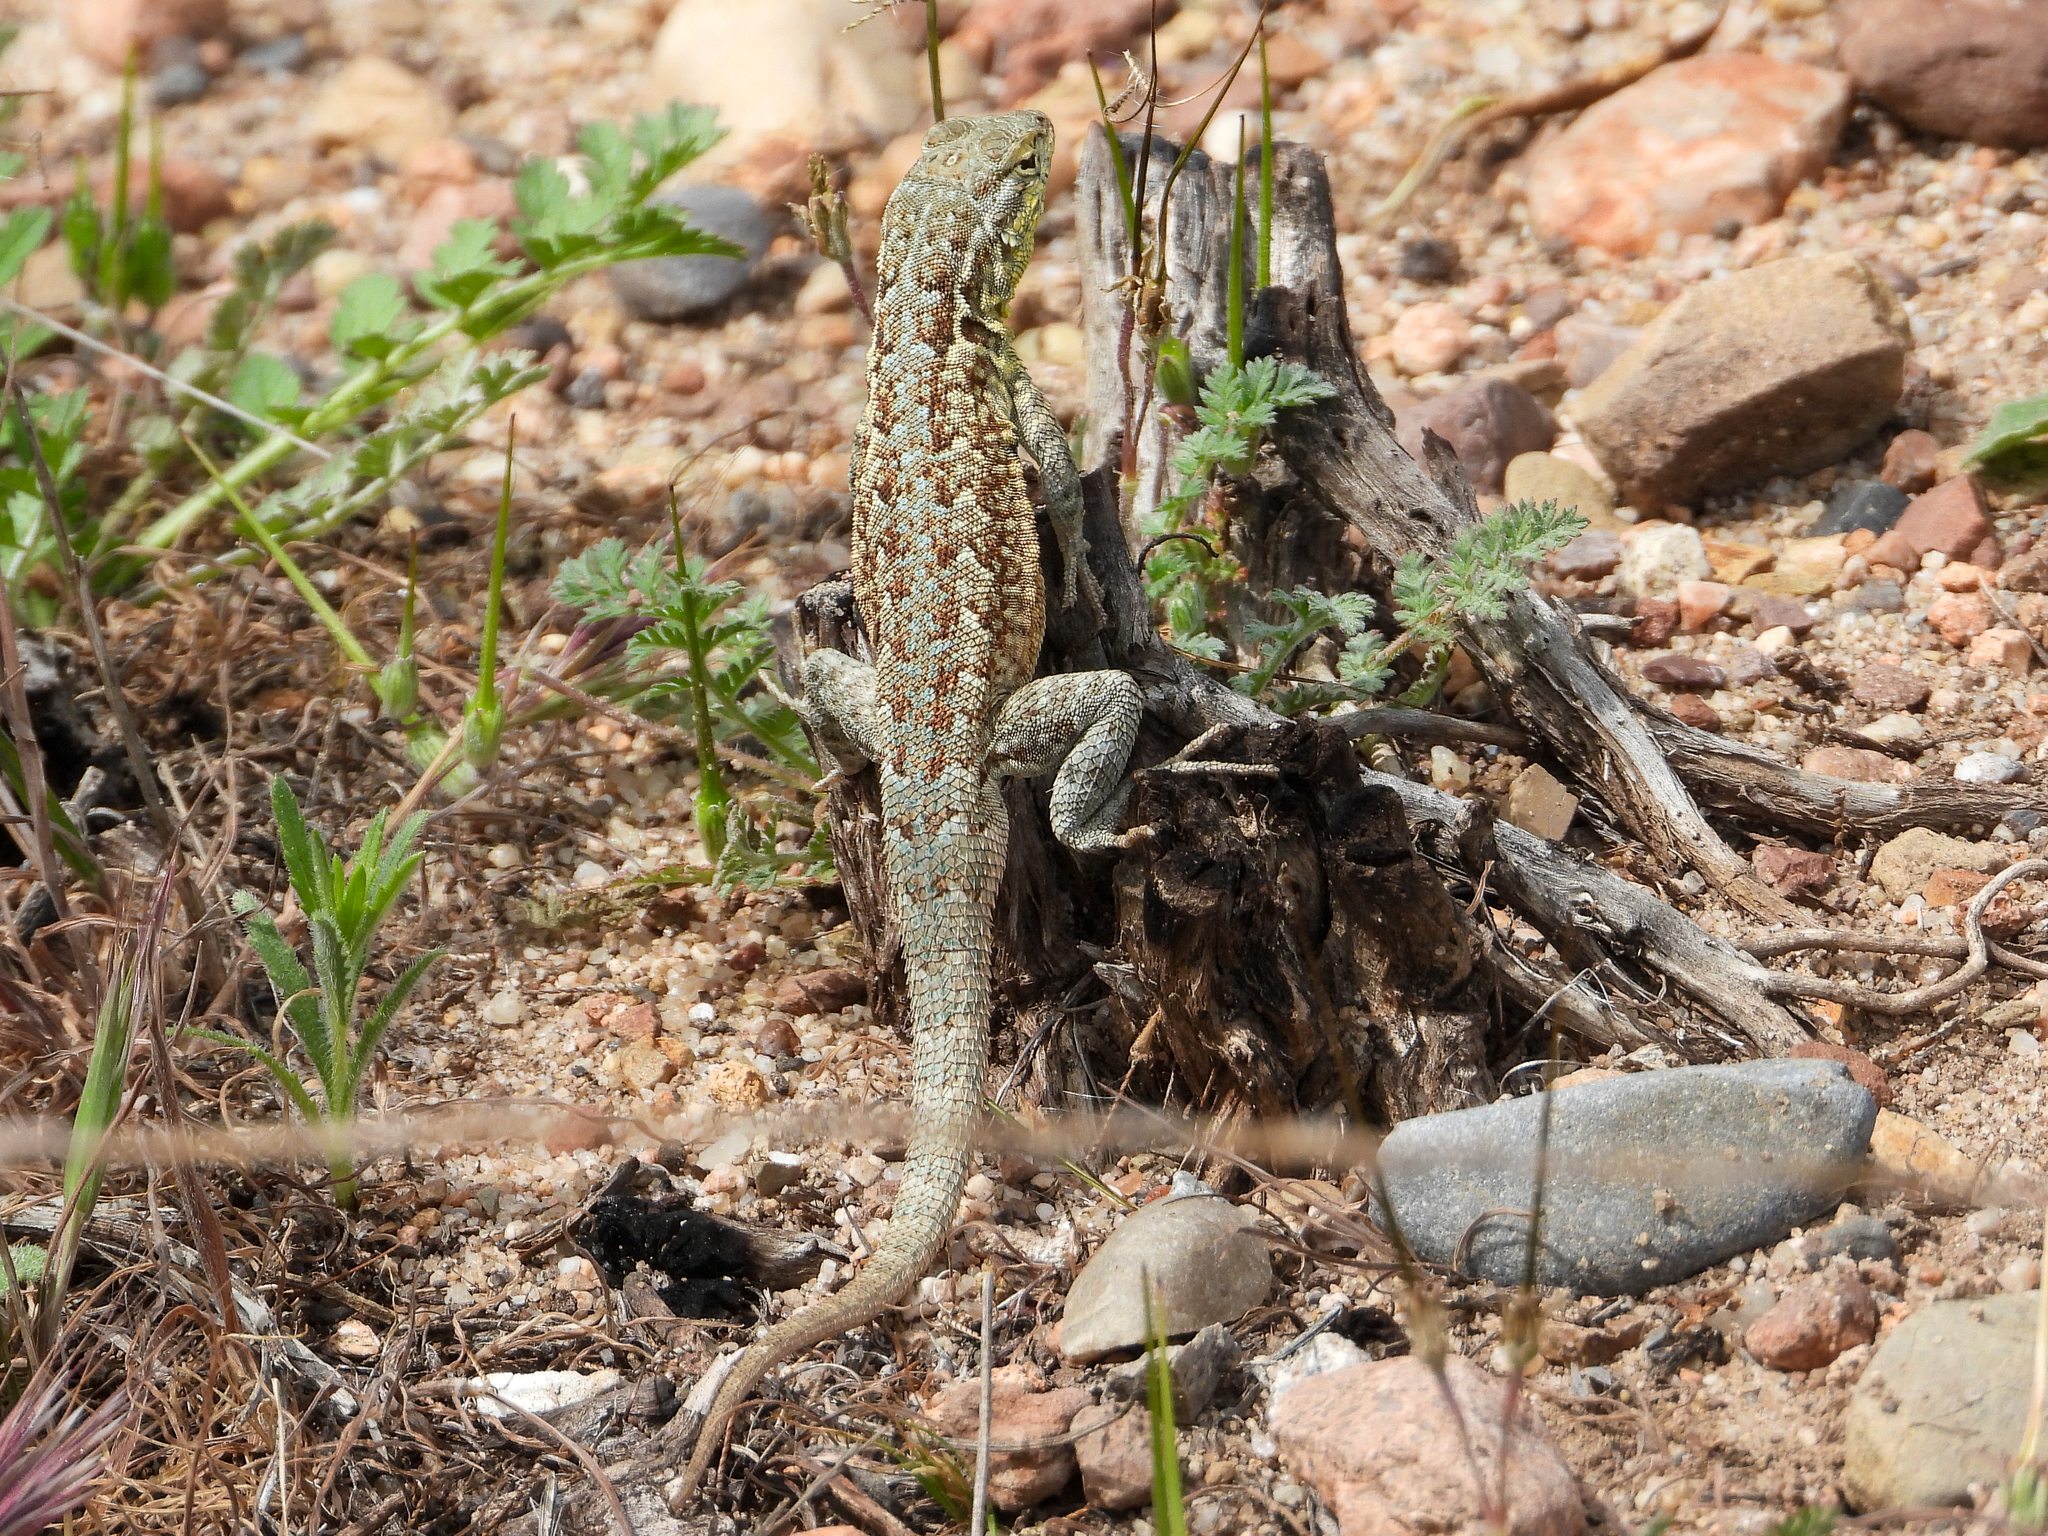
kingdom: Animalia
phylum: Chordata
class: Squamata
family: Phrynosomatidae
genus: Uta
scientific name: Uta stansburiana
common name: Side-blotched lizard
